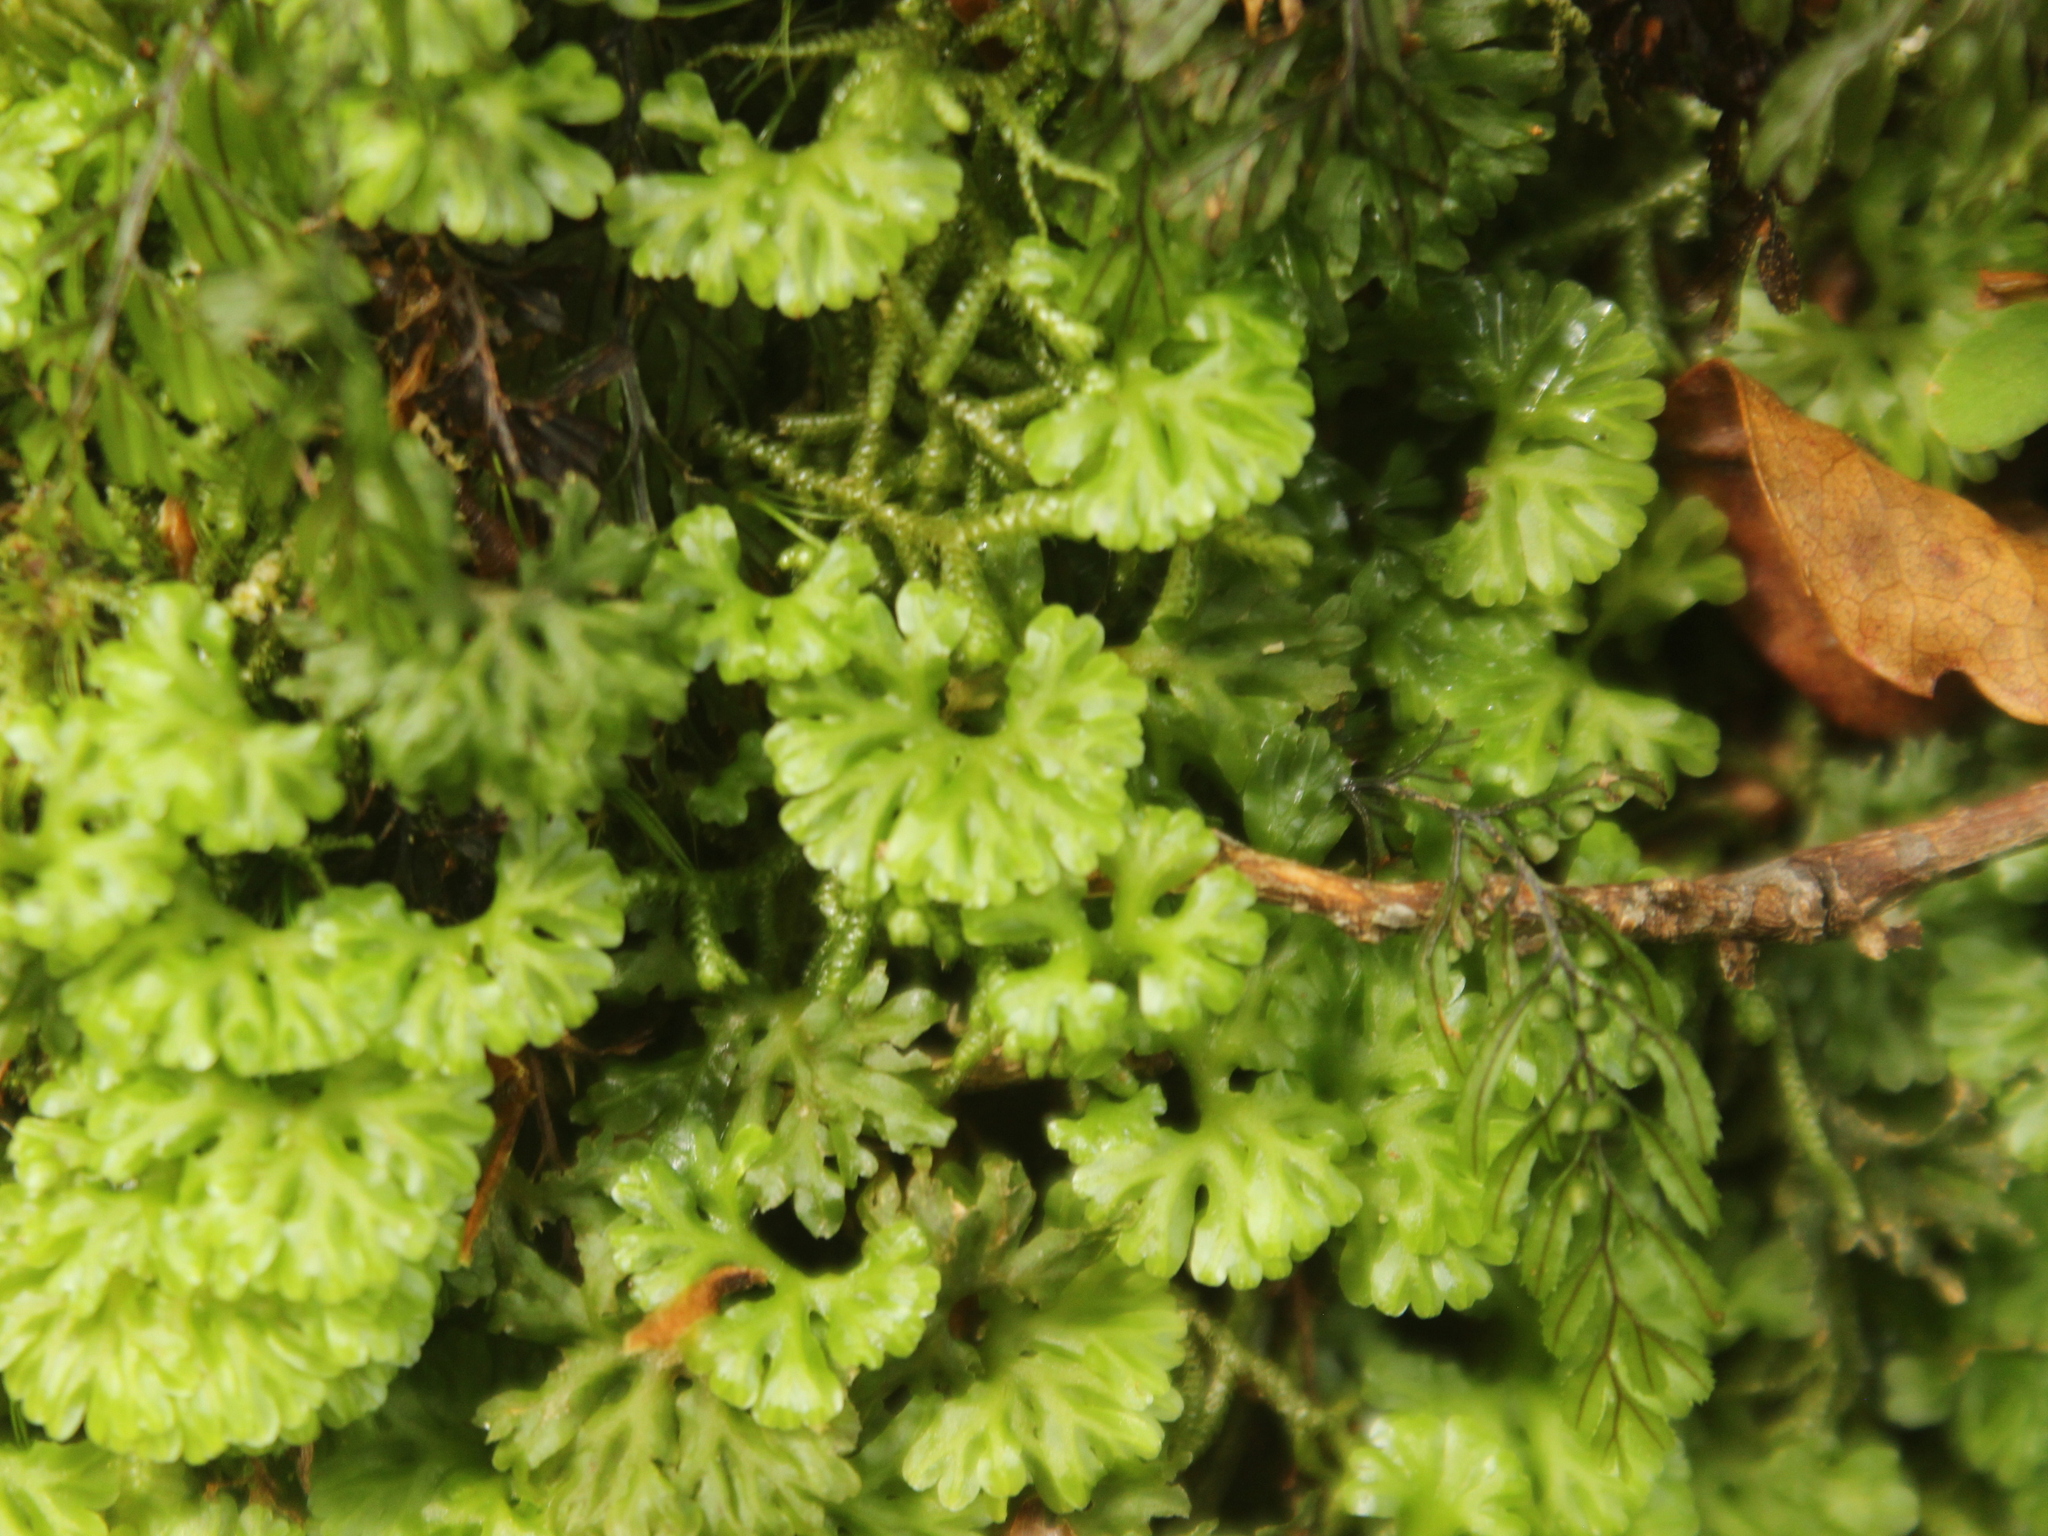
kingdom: Plantae
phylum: Marchantiophyta
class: Jungermanniopsida
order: Pallaviciniales
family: Hymenophytaceae
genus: Hymenophyton
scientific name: Hymenophyton flabellatum
